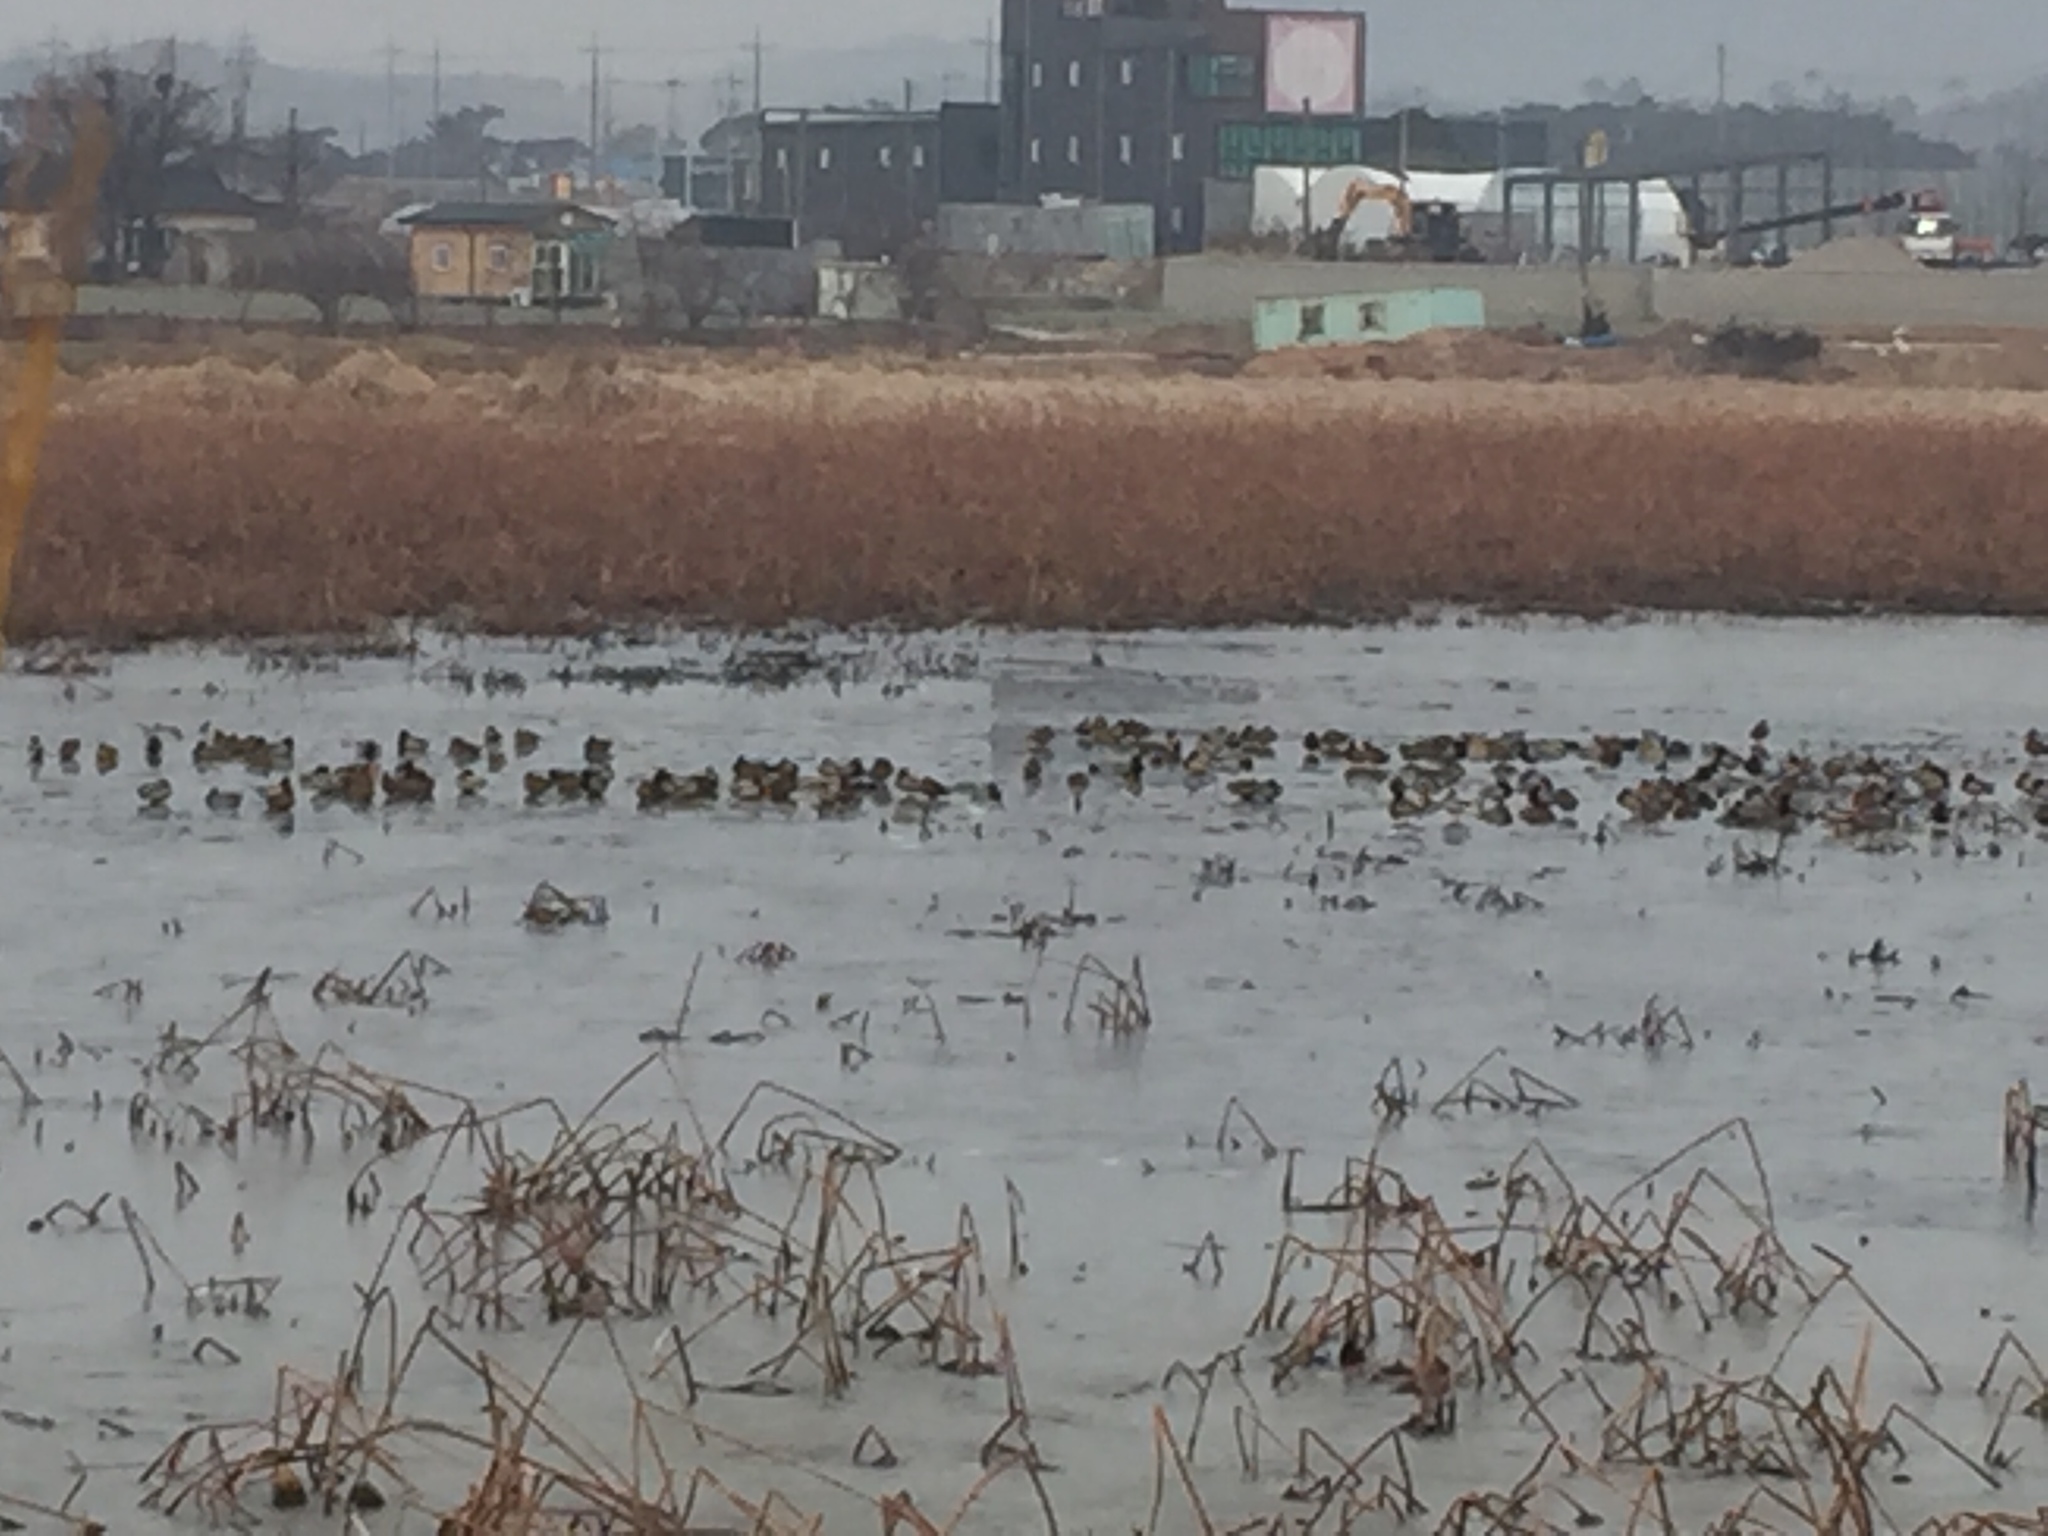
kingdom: Animalia
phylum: Chordata
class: Aves
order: Anseriformes
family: Anatidae
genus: Anas
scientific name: Anas platyrhynchos
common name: Mallard
